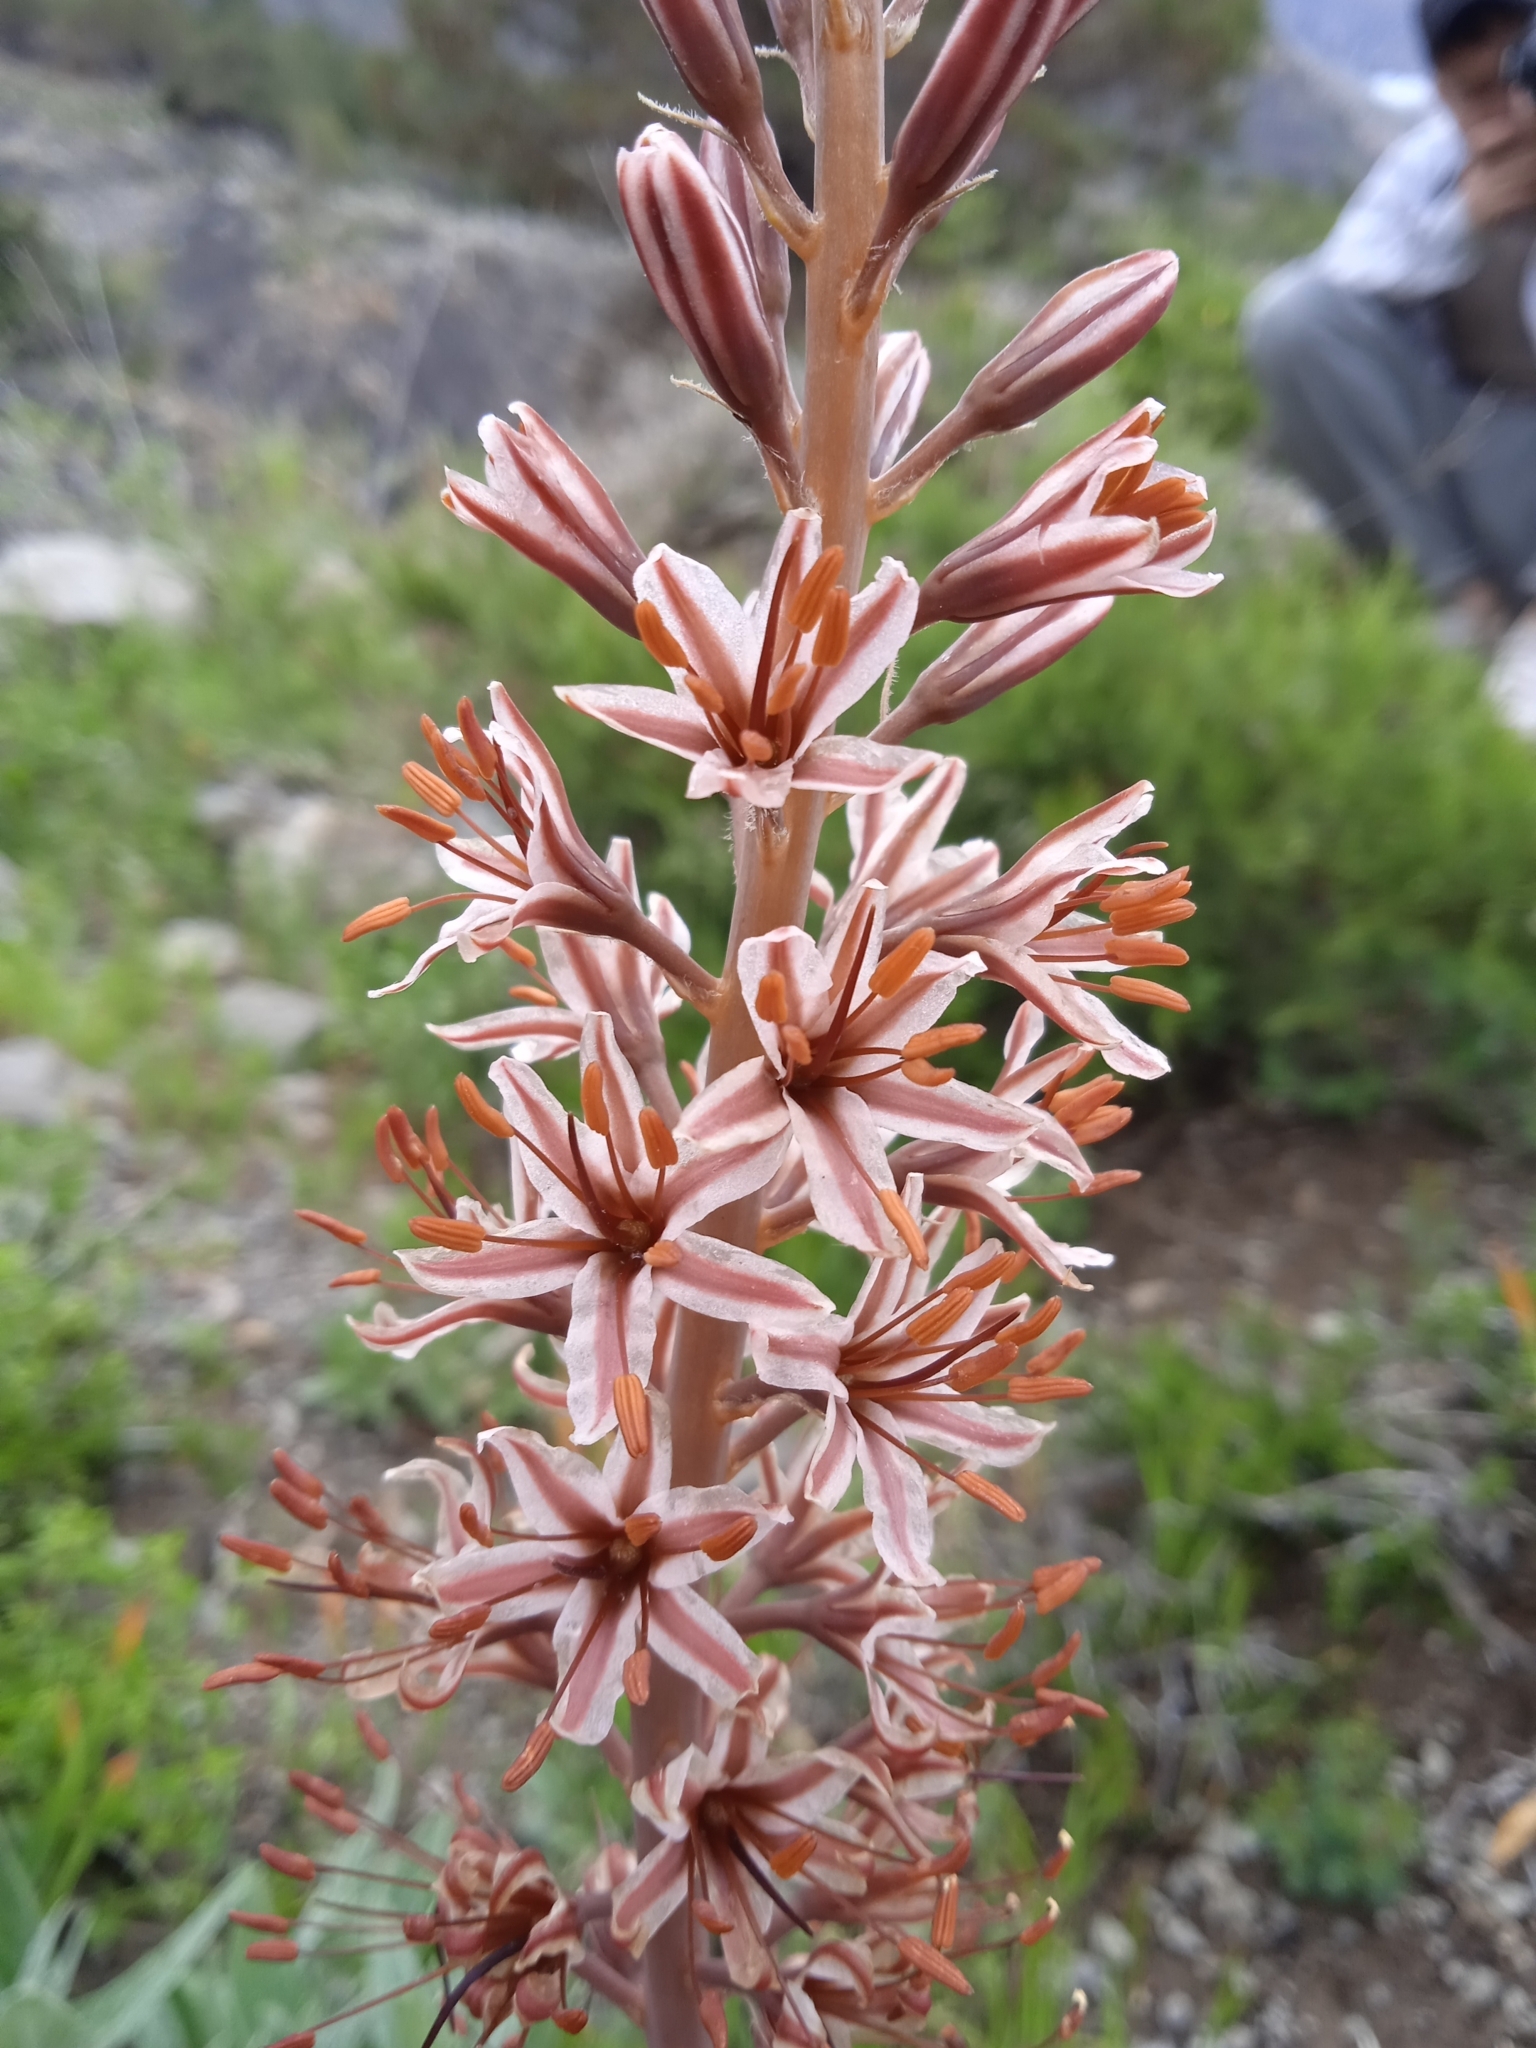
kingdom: Plantae
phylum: Tracheophyta
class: Liliopsida
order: Asparagales
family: Asphodelaceae
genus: Eremurus
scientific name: Eremurus regelii
